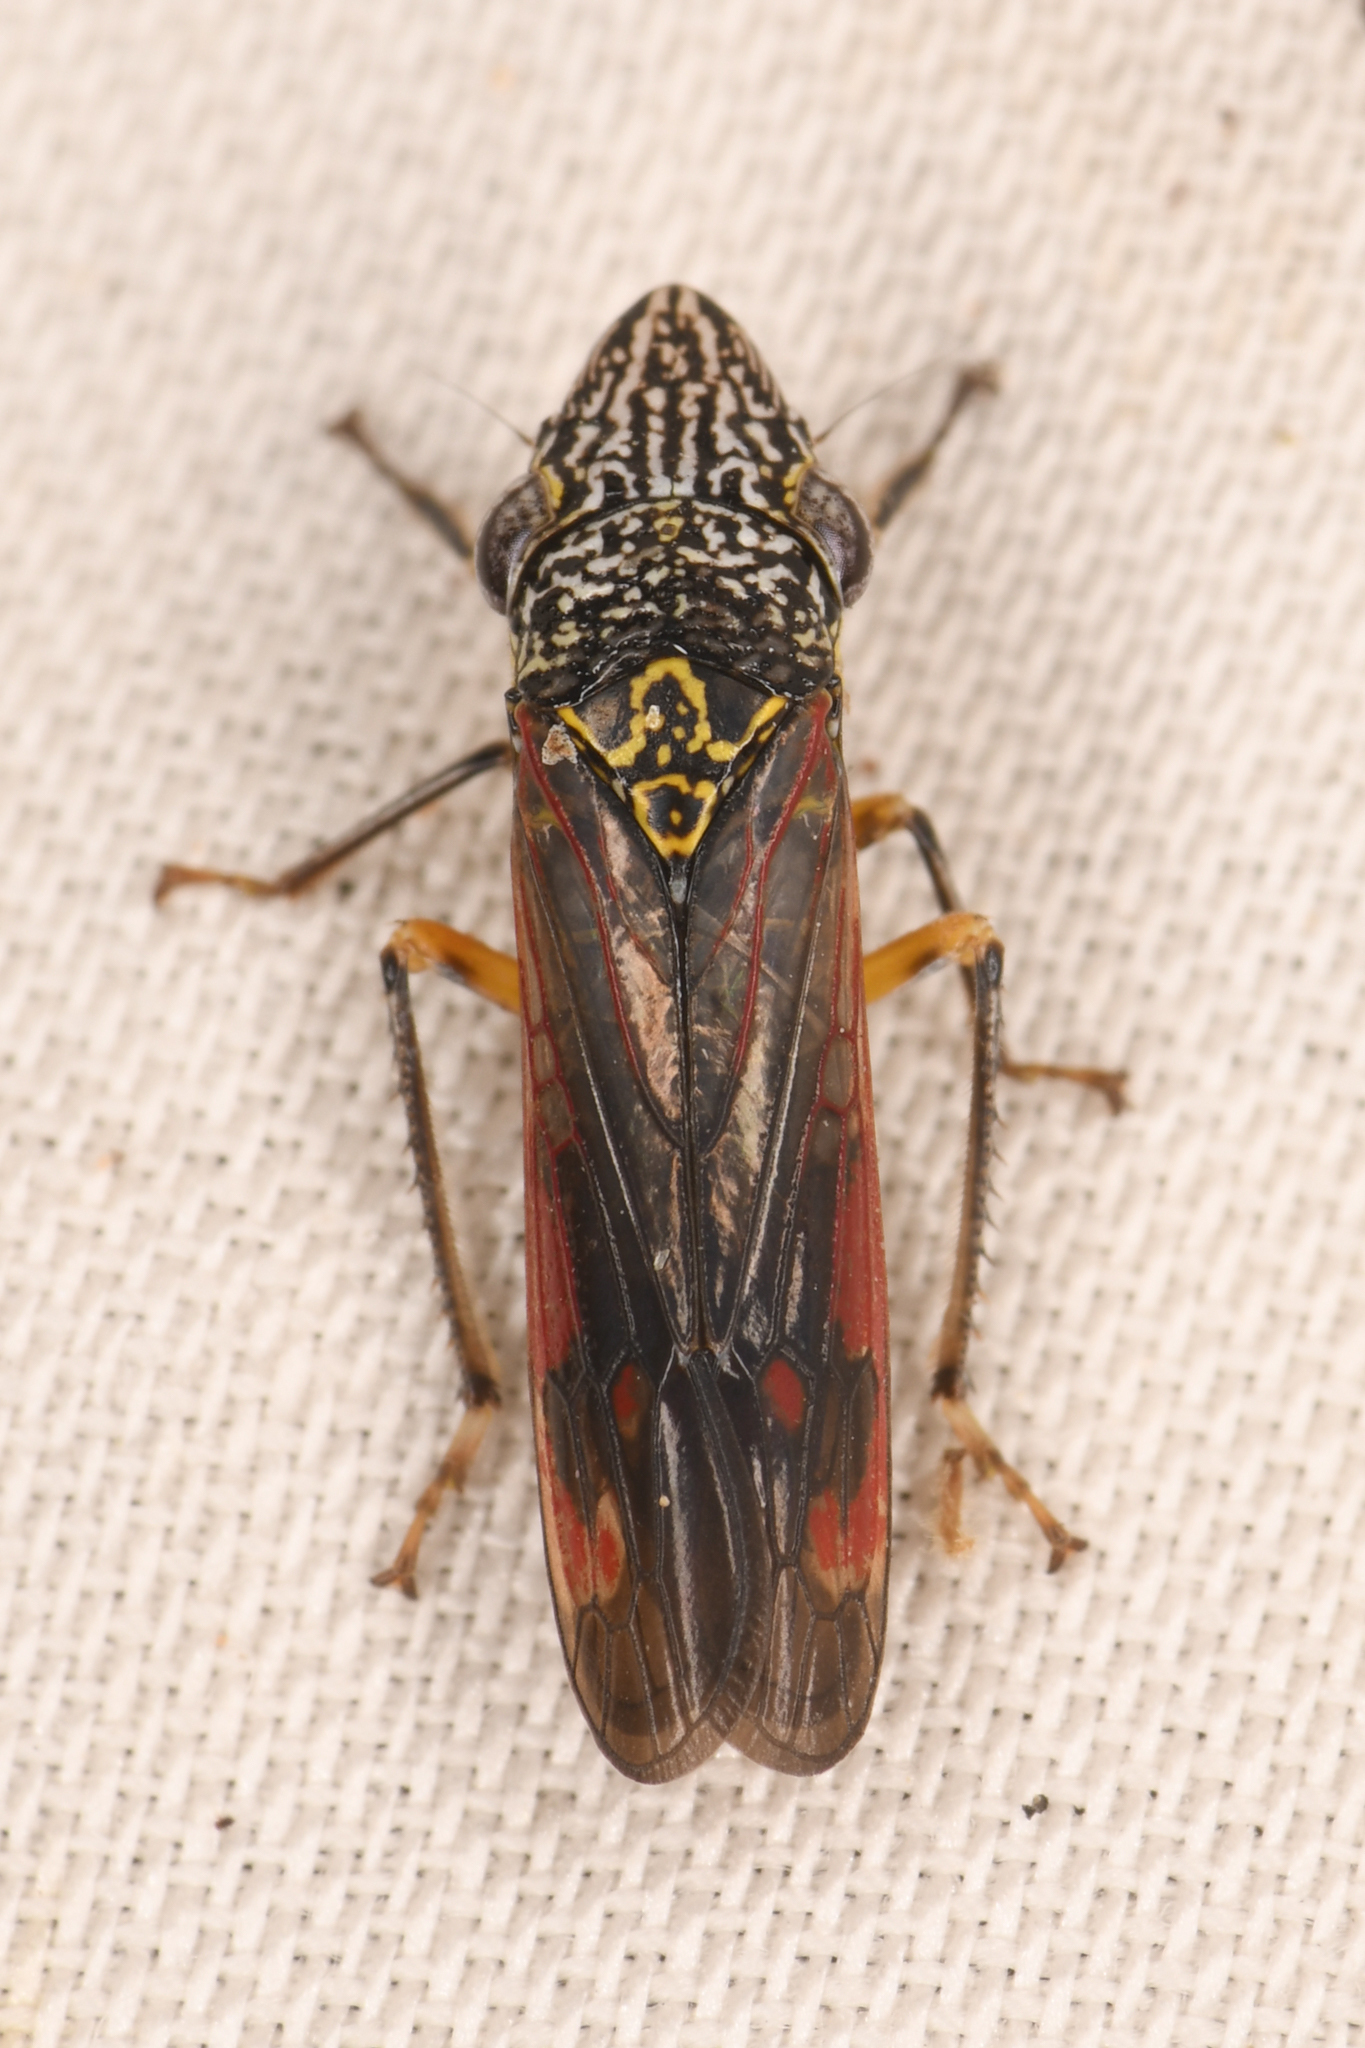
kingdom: Animalia
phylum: Arthropoda
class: Insecta
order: Hemiptera
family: Cicadellidae
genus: Homalodisca
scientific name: Homalodisca liturata
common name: Lacertate sharpshooter
